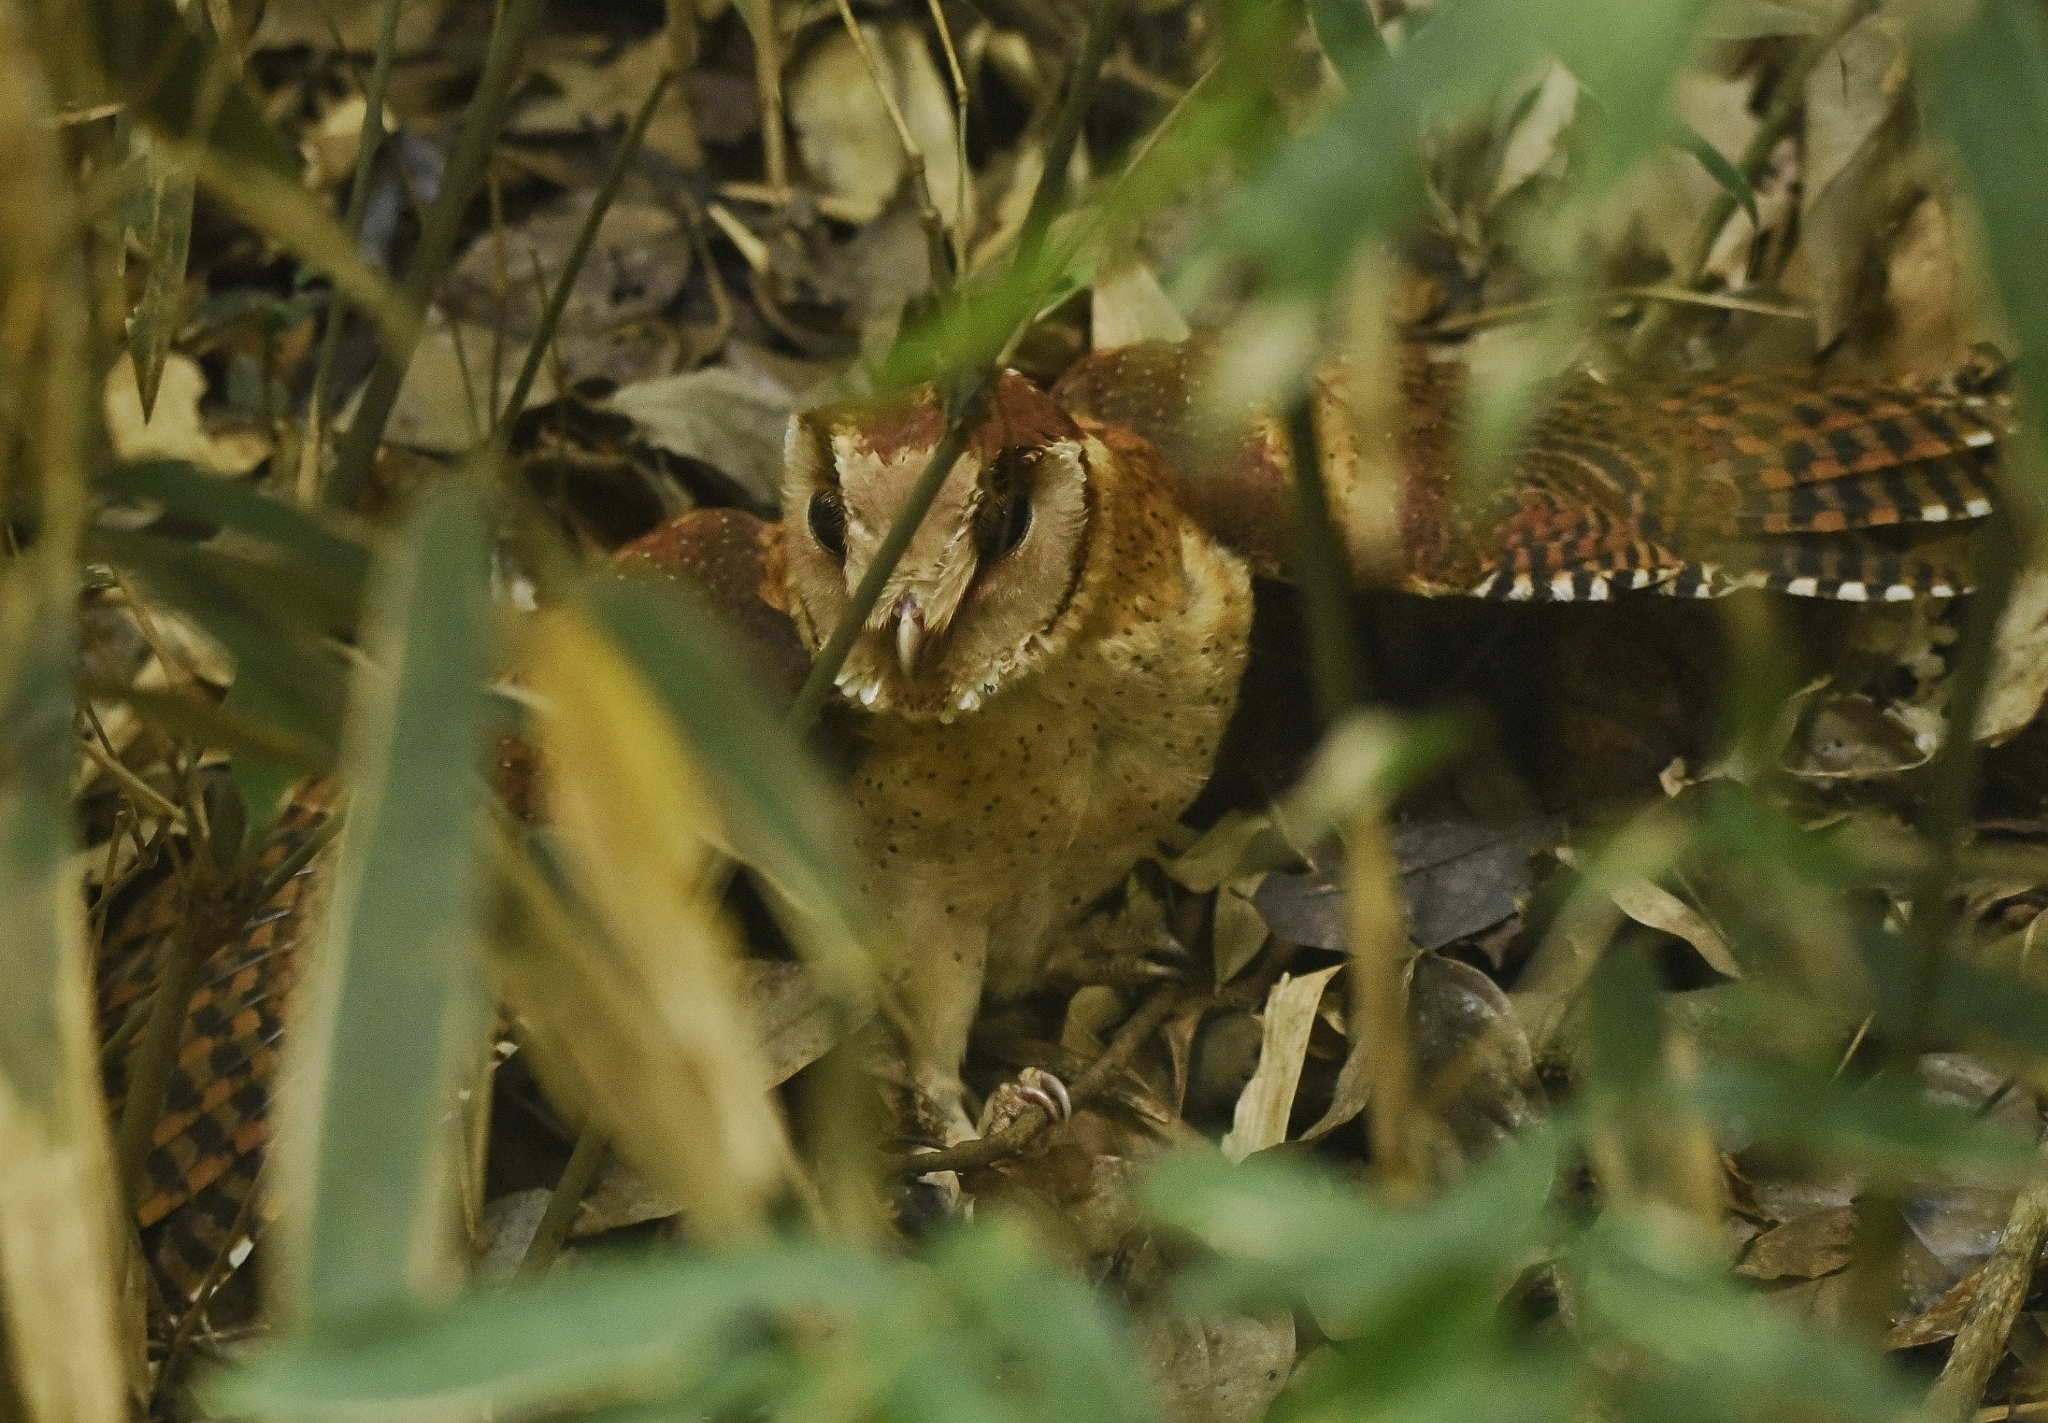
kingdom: Animalia
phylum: Chordata
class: Aves
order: Strigiformes
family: Tytonidae
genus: Phodilus
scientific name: Phodilus assimilis
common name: Sri lanka bay-owl
